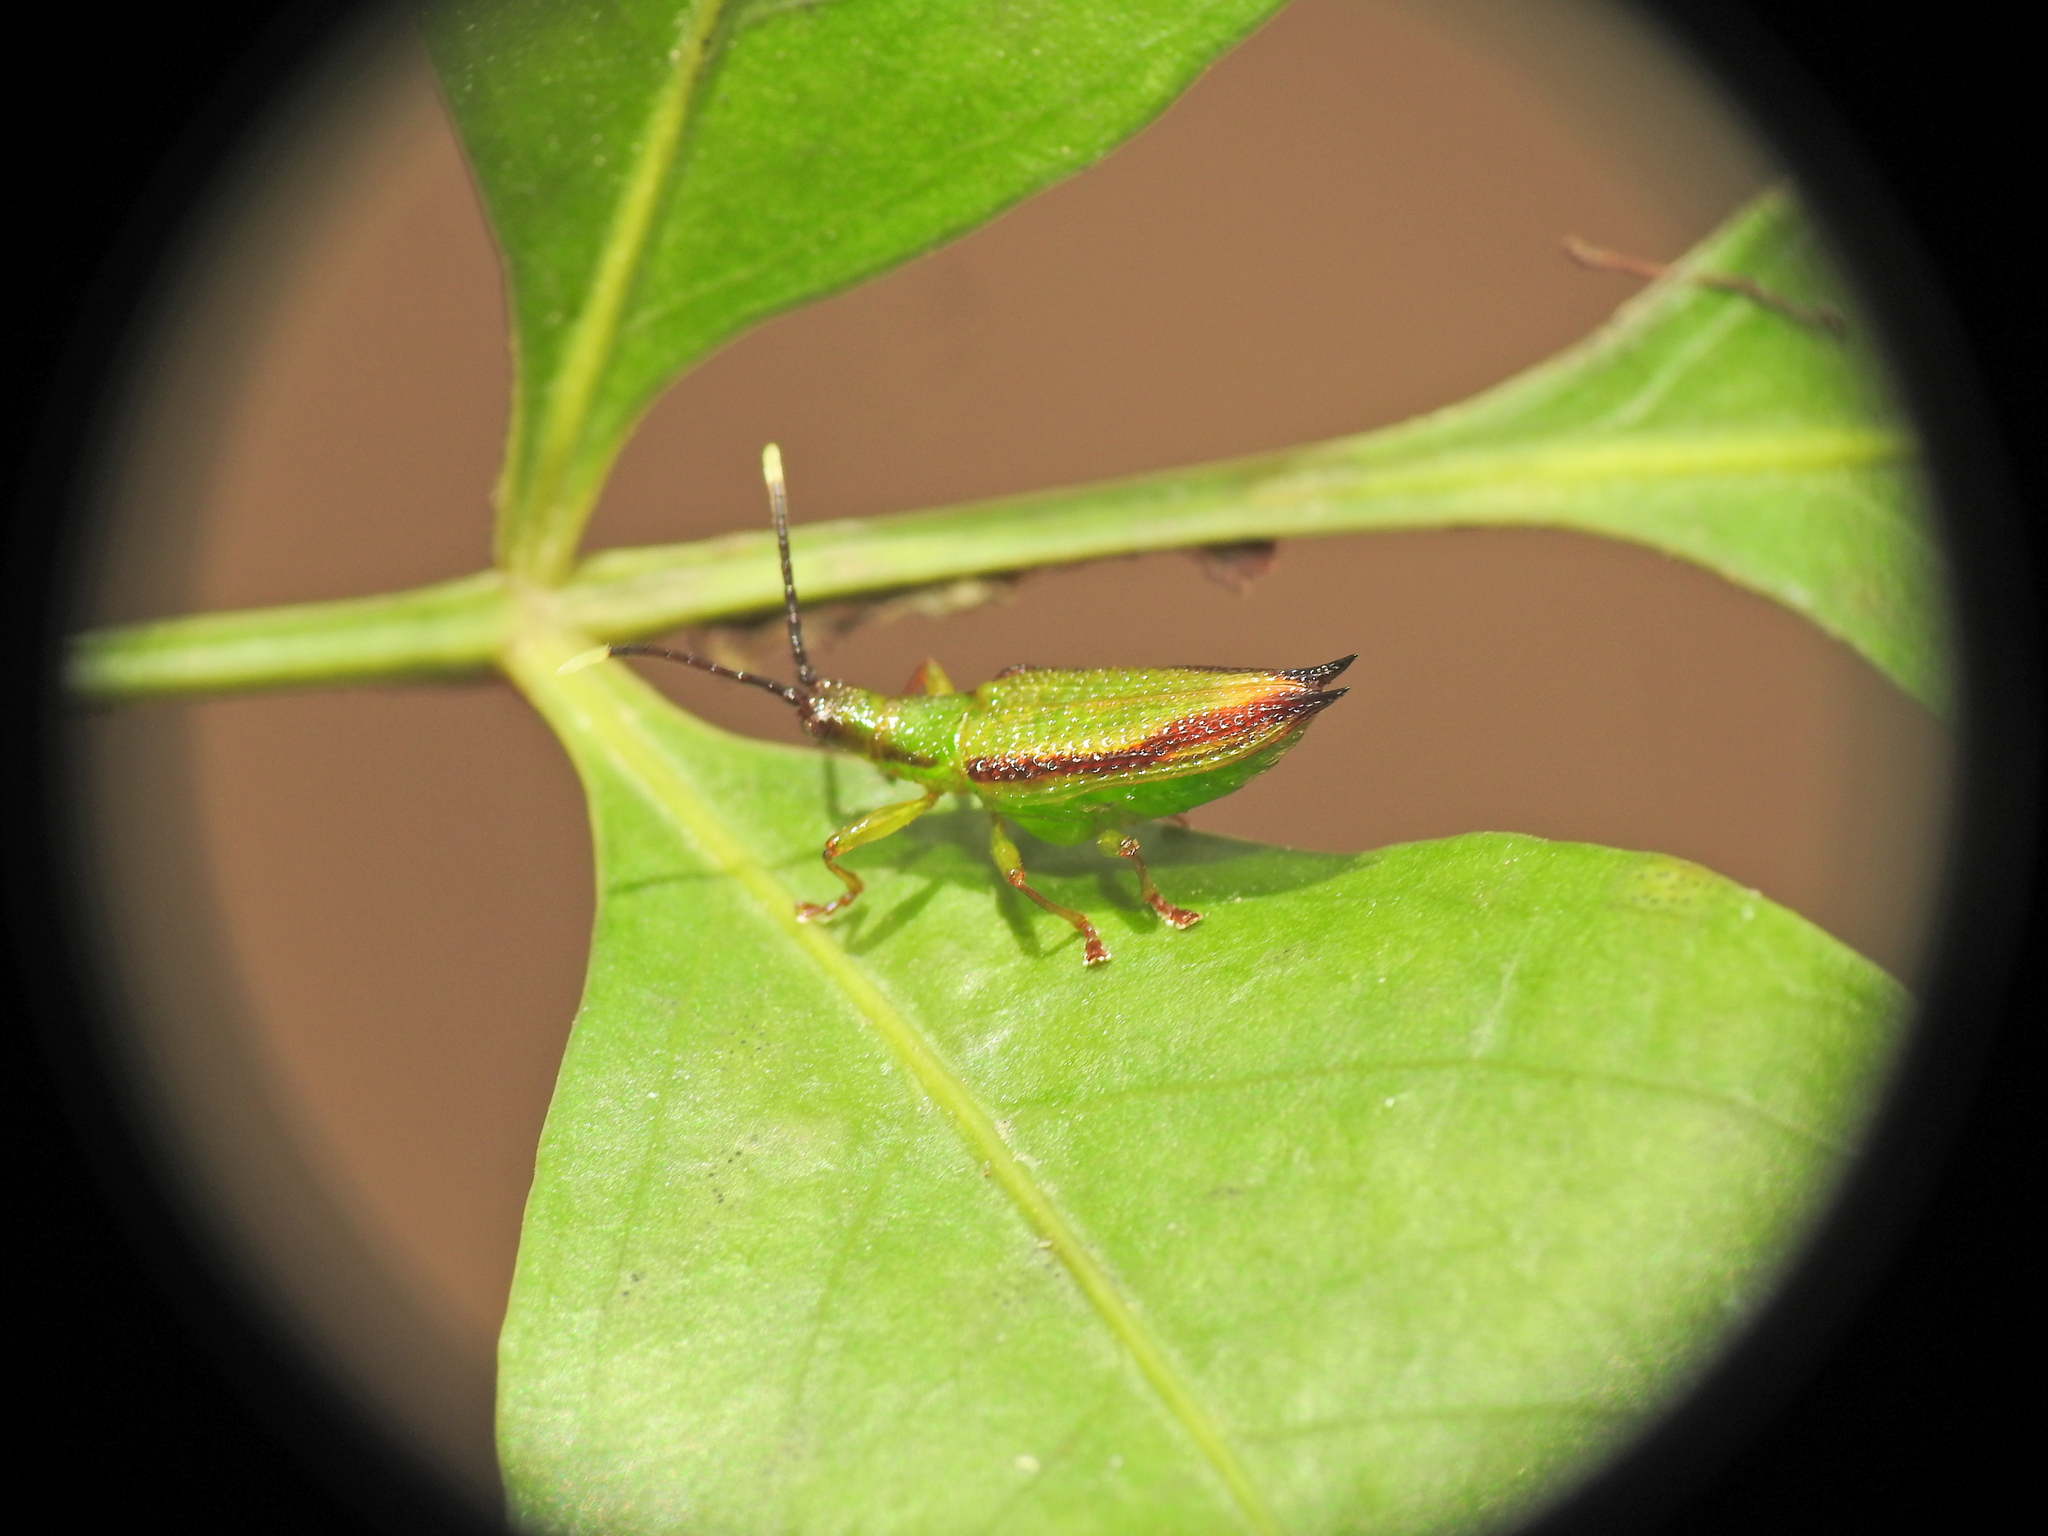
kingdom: Animalia
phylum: Arthropoda
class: Insecta
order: Coleoptera
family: Chrysomelidae
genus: Aproida
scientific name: Aproida balyi
